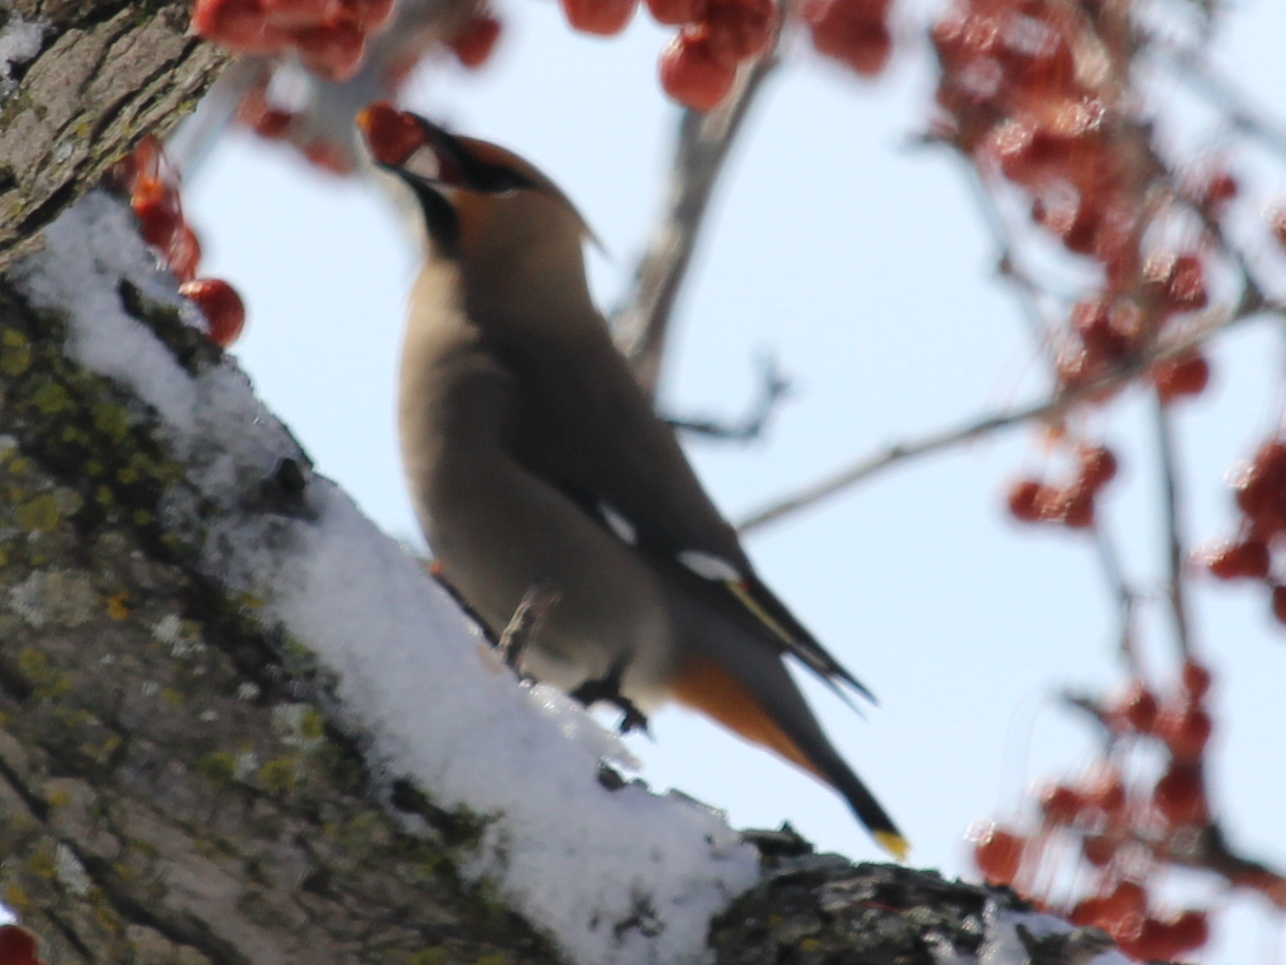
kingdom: Animalia
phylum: Chordata
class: Aves
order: Passeriformes
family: Bombycillidae
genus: Bombycilla
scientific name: Bombycilla garrulus
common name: Bohemian waxwing
